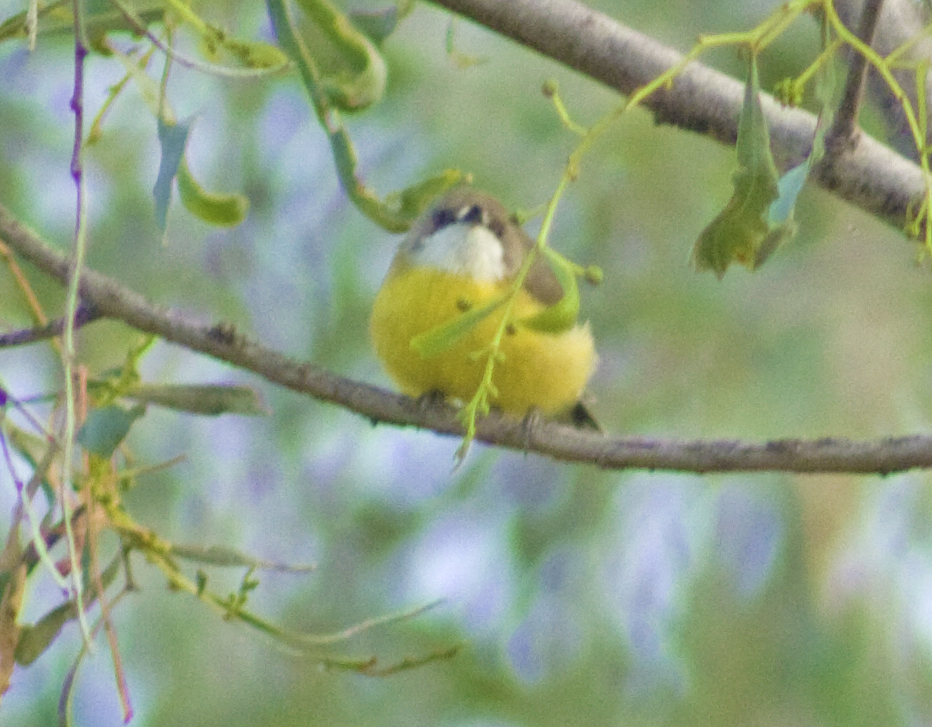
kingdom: Animalia
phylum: Chordata
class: Aves
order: Passeriformes
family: Acanthizidae
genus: Gerygone
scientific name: Gerygone olivacea
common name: White-throated gerygone
